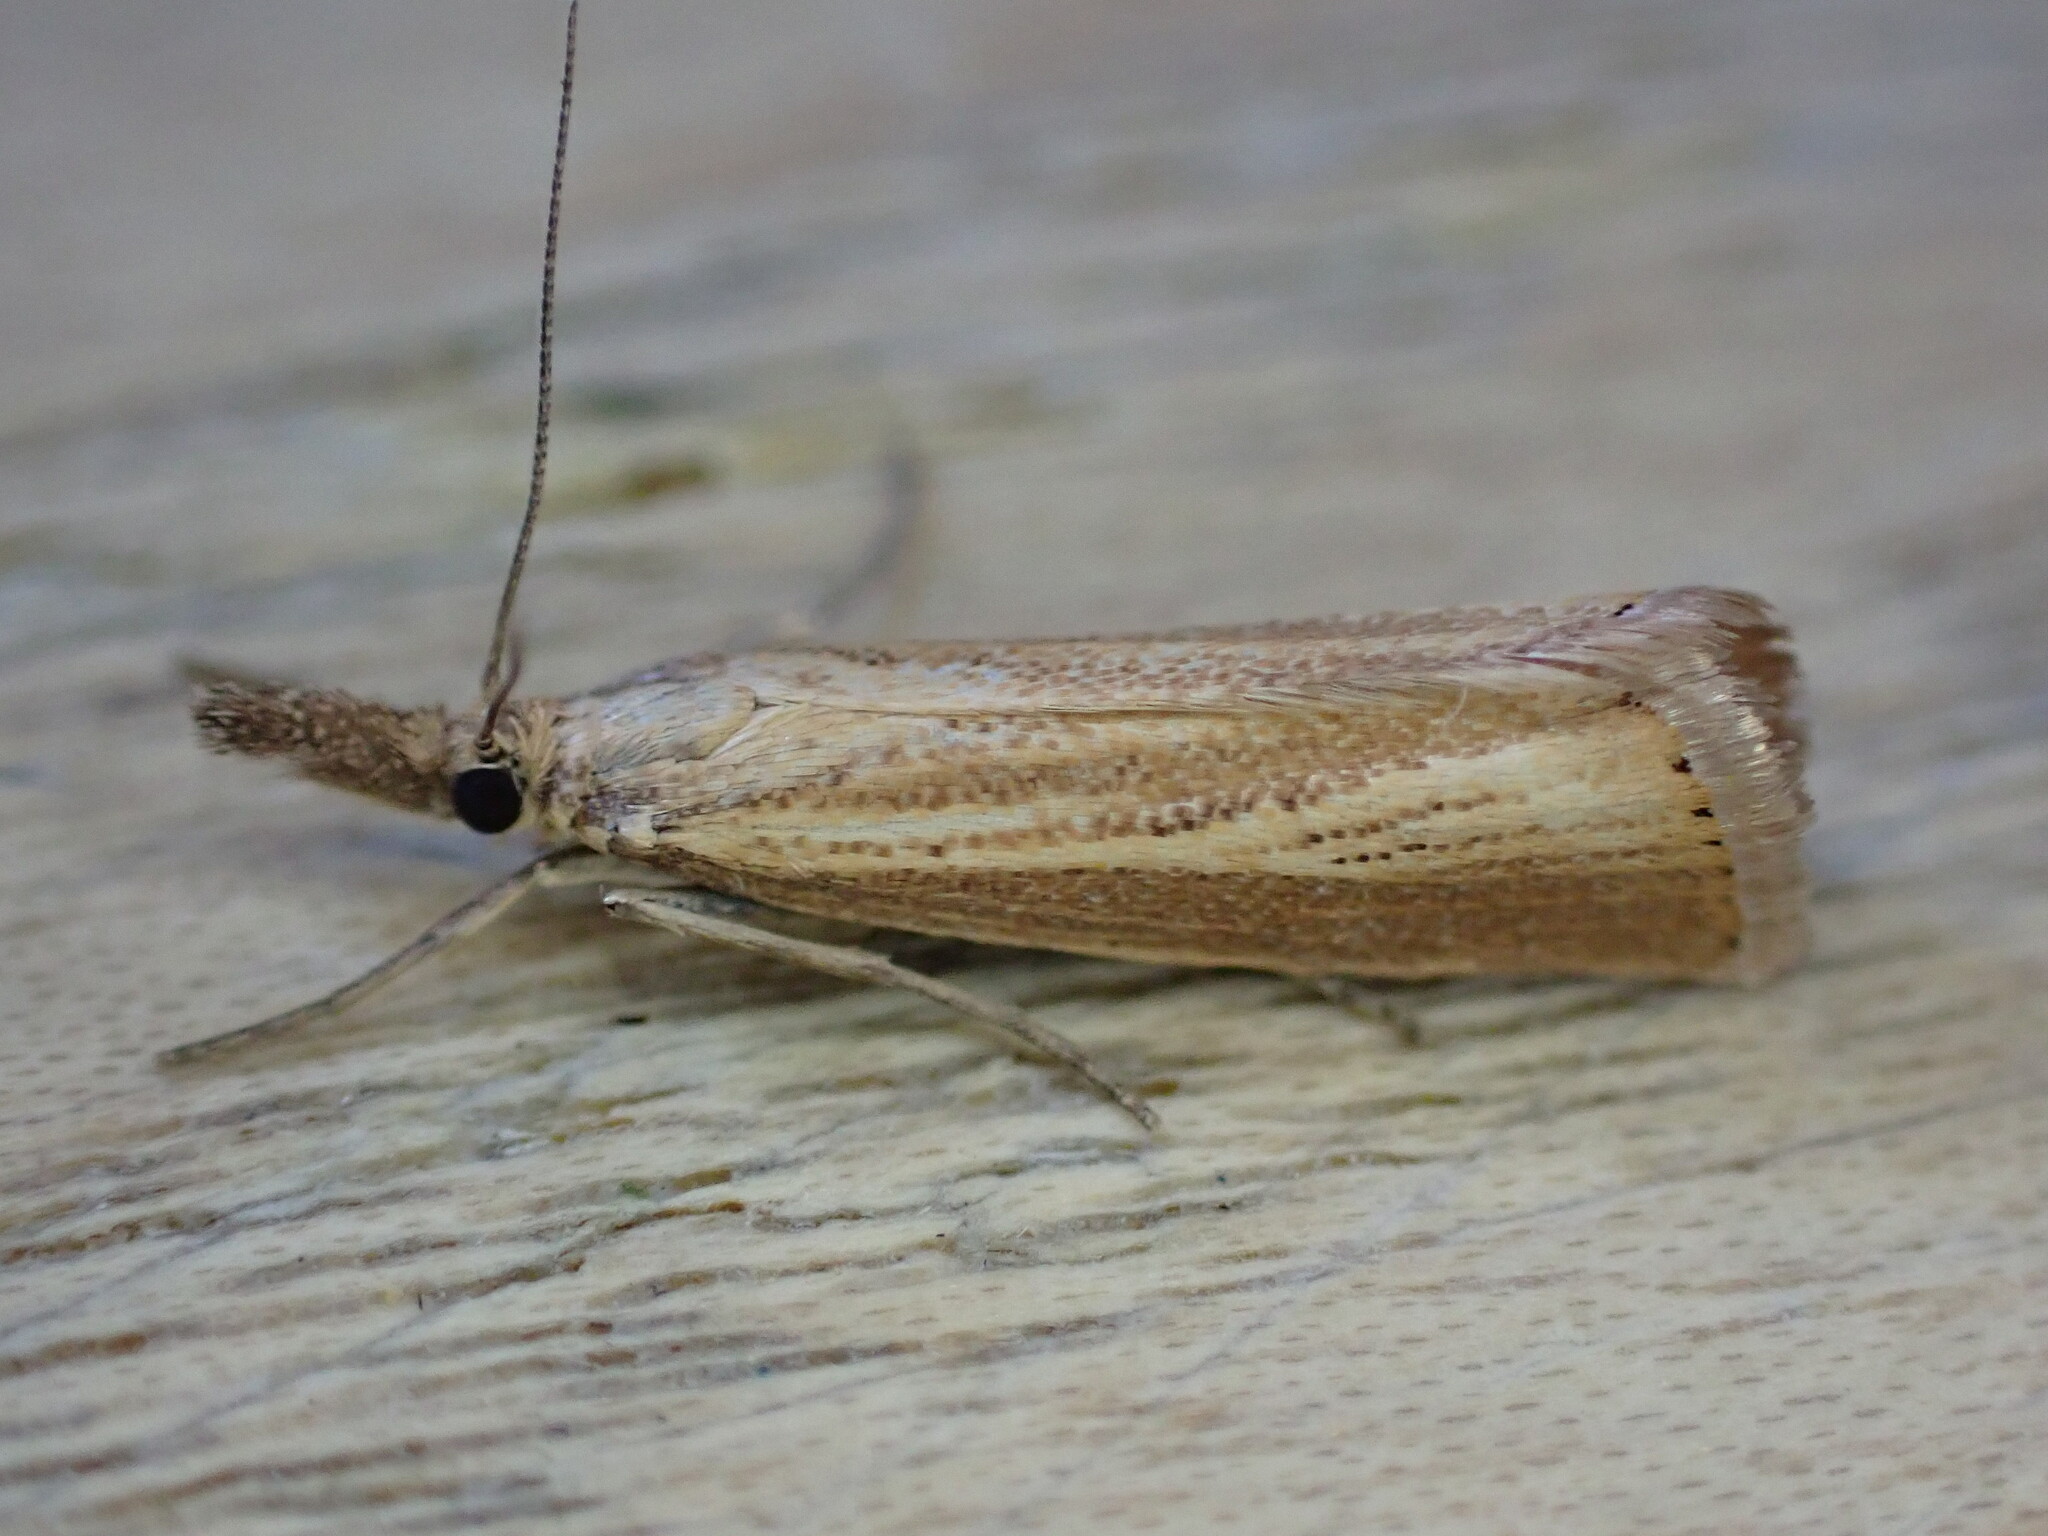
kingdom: Animalia
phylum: Arthropoda
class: Insecta
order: Lepidoptera
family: Crambidae
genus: Agriphila
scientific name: Agriphila straminella
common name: Straw grass-veneer
